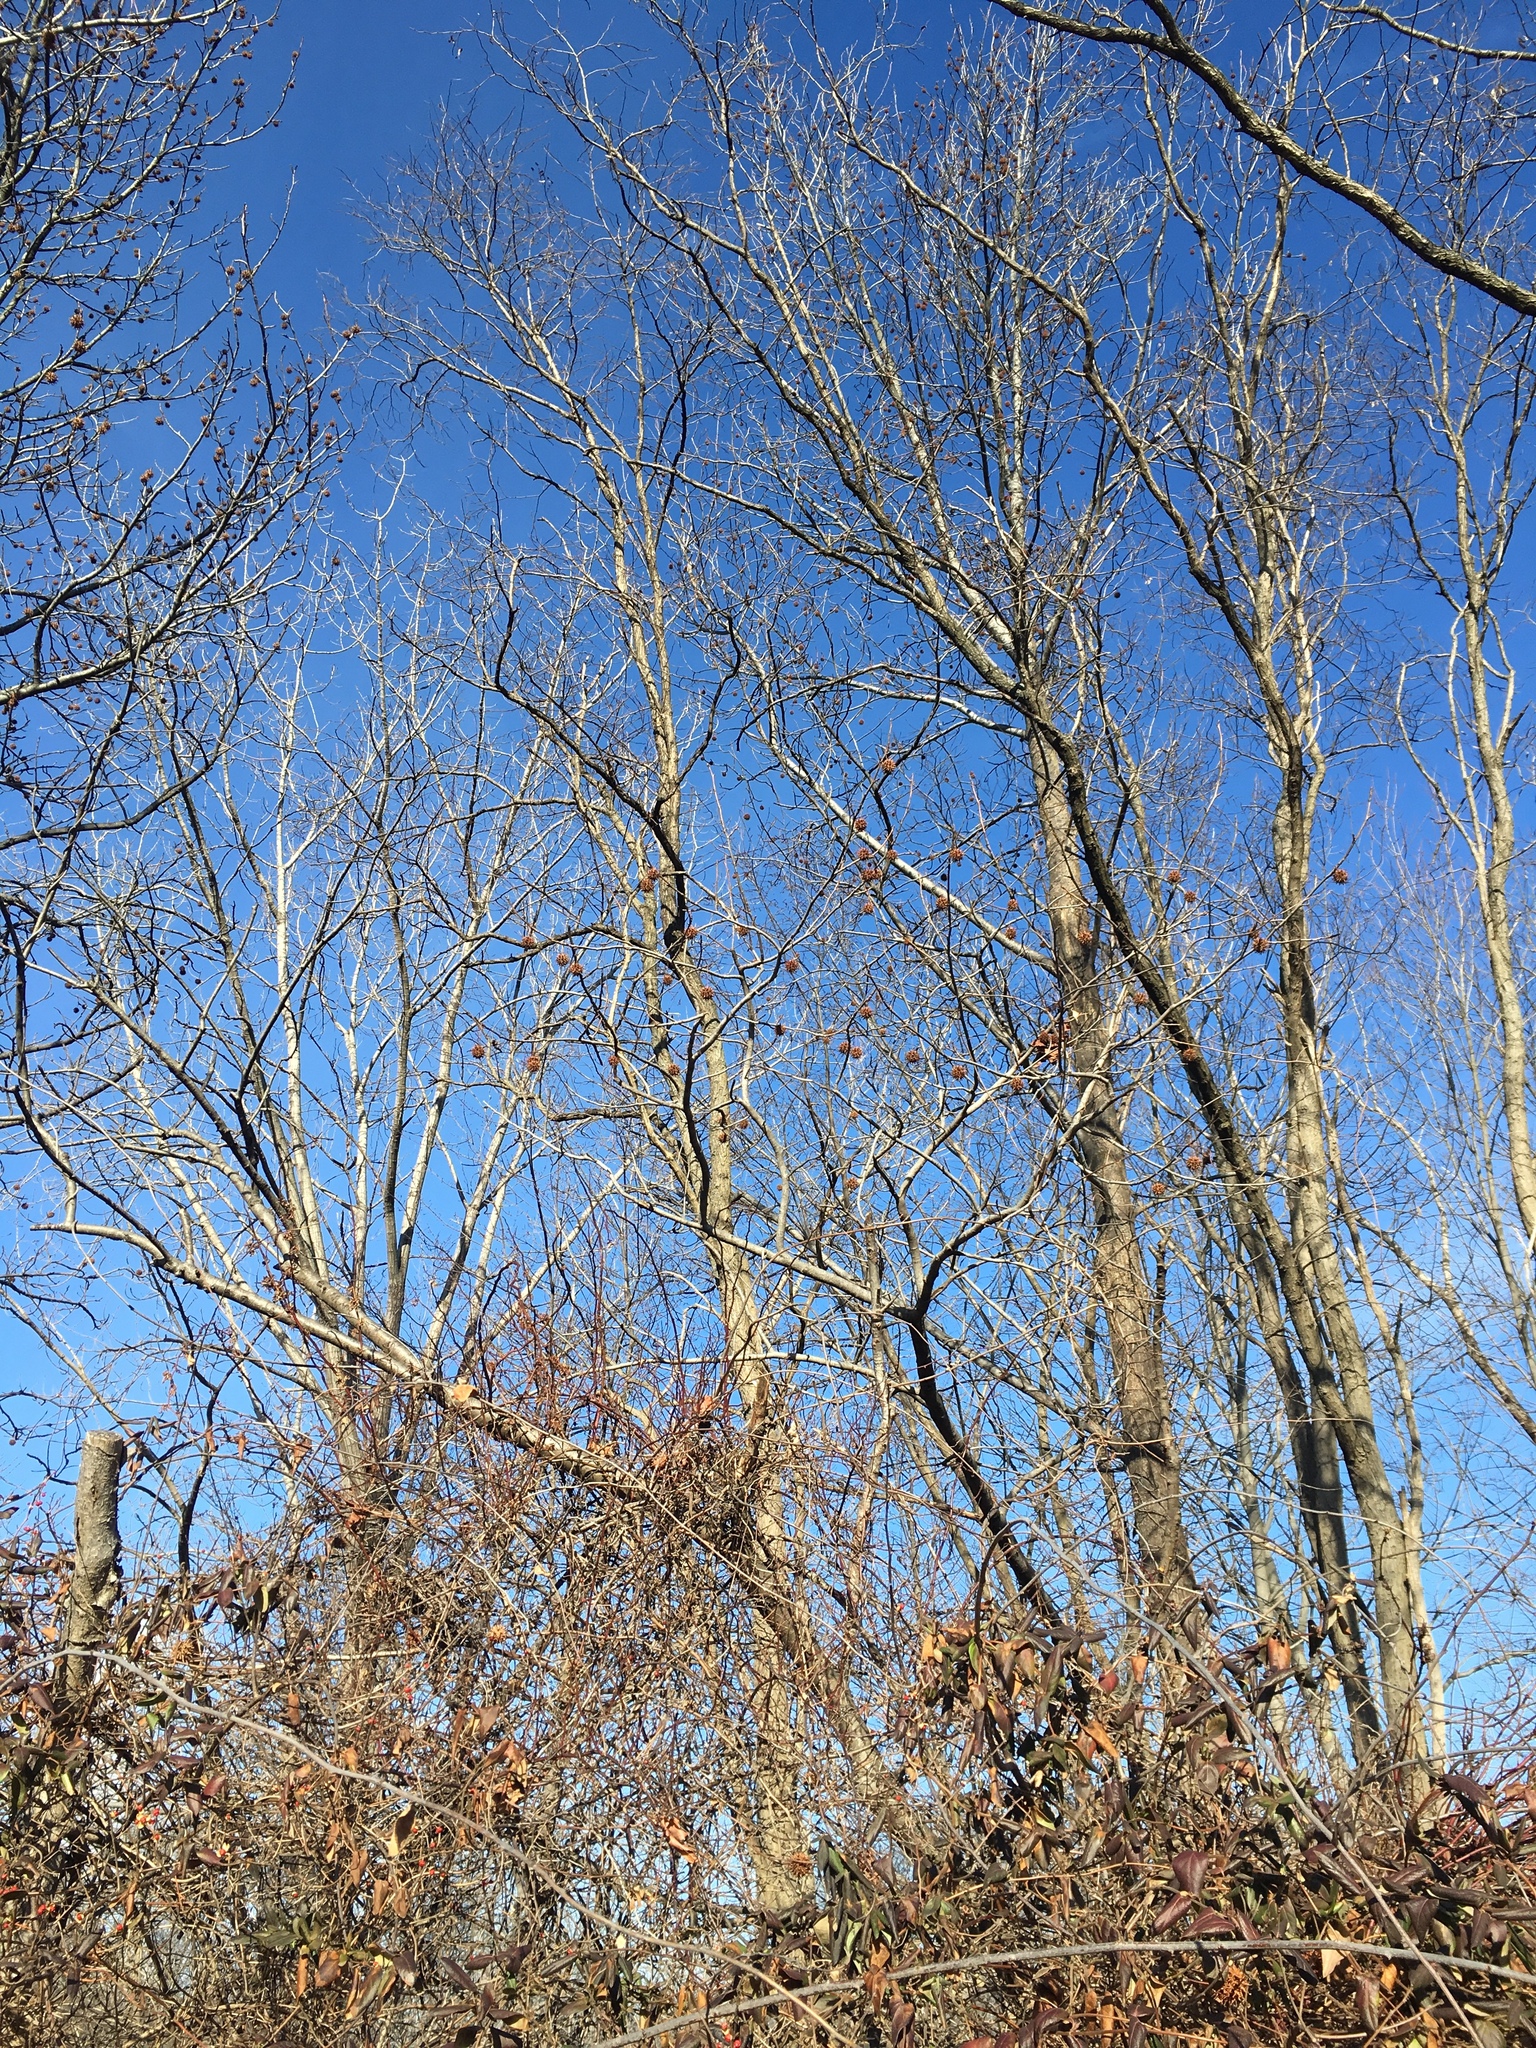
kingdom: Plantae
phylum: Tracheophyta
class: Magnoliopsida
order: Saxifragales
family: Altingiaceae
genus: Liquidambar
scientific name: Liquidambar styraciflua
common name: Sweet gum
